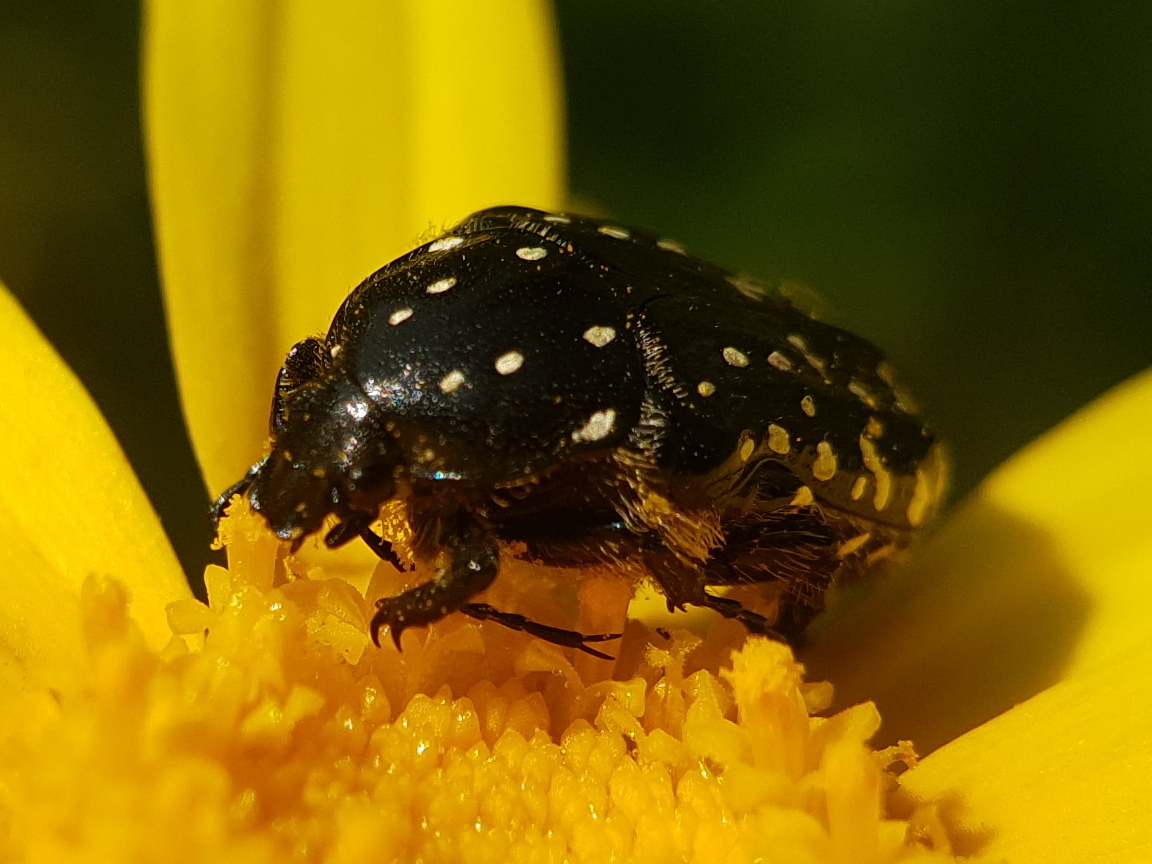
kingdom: Animalia
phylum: Arthropoda
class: Insecta
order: Coleoptera
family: Scarabaeidae
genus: Oxythyrea
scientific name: Oxythyrea noemi
